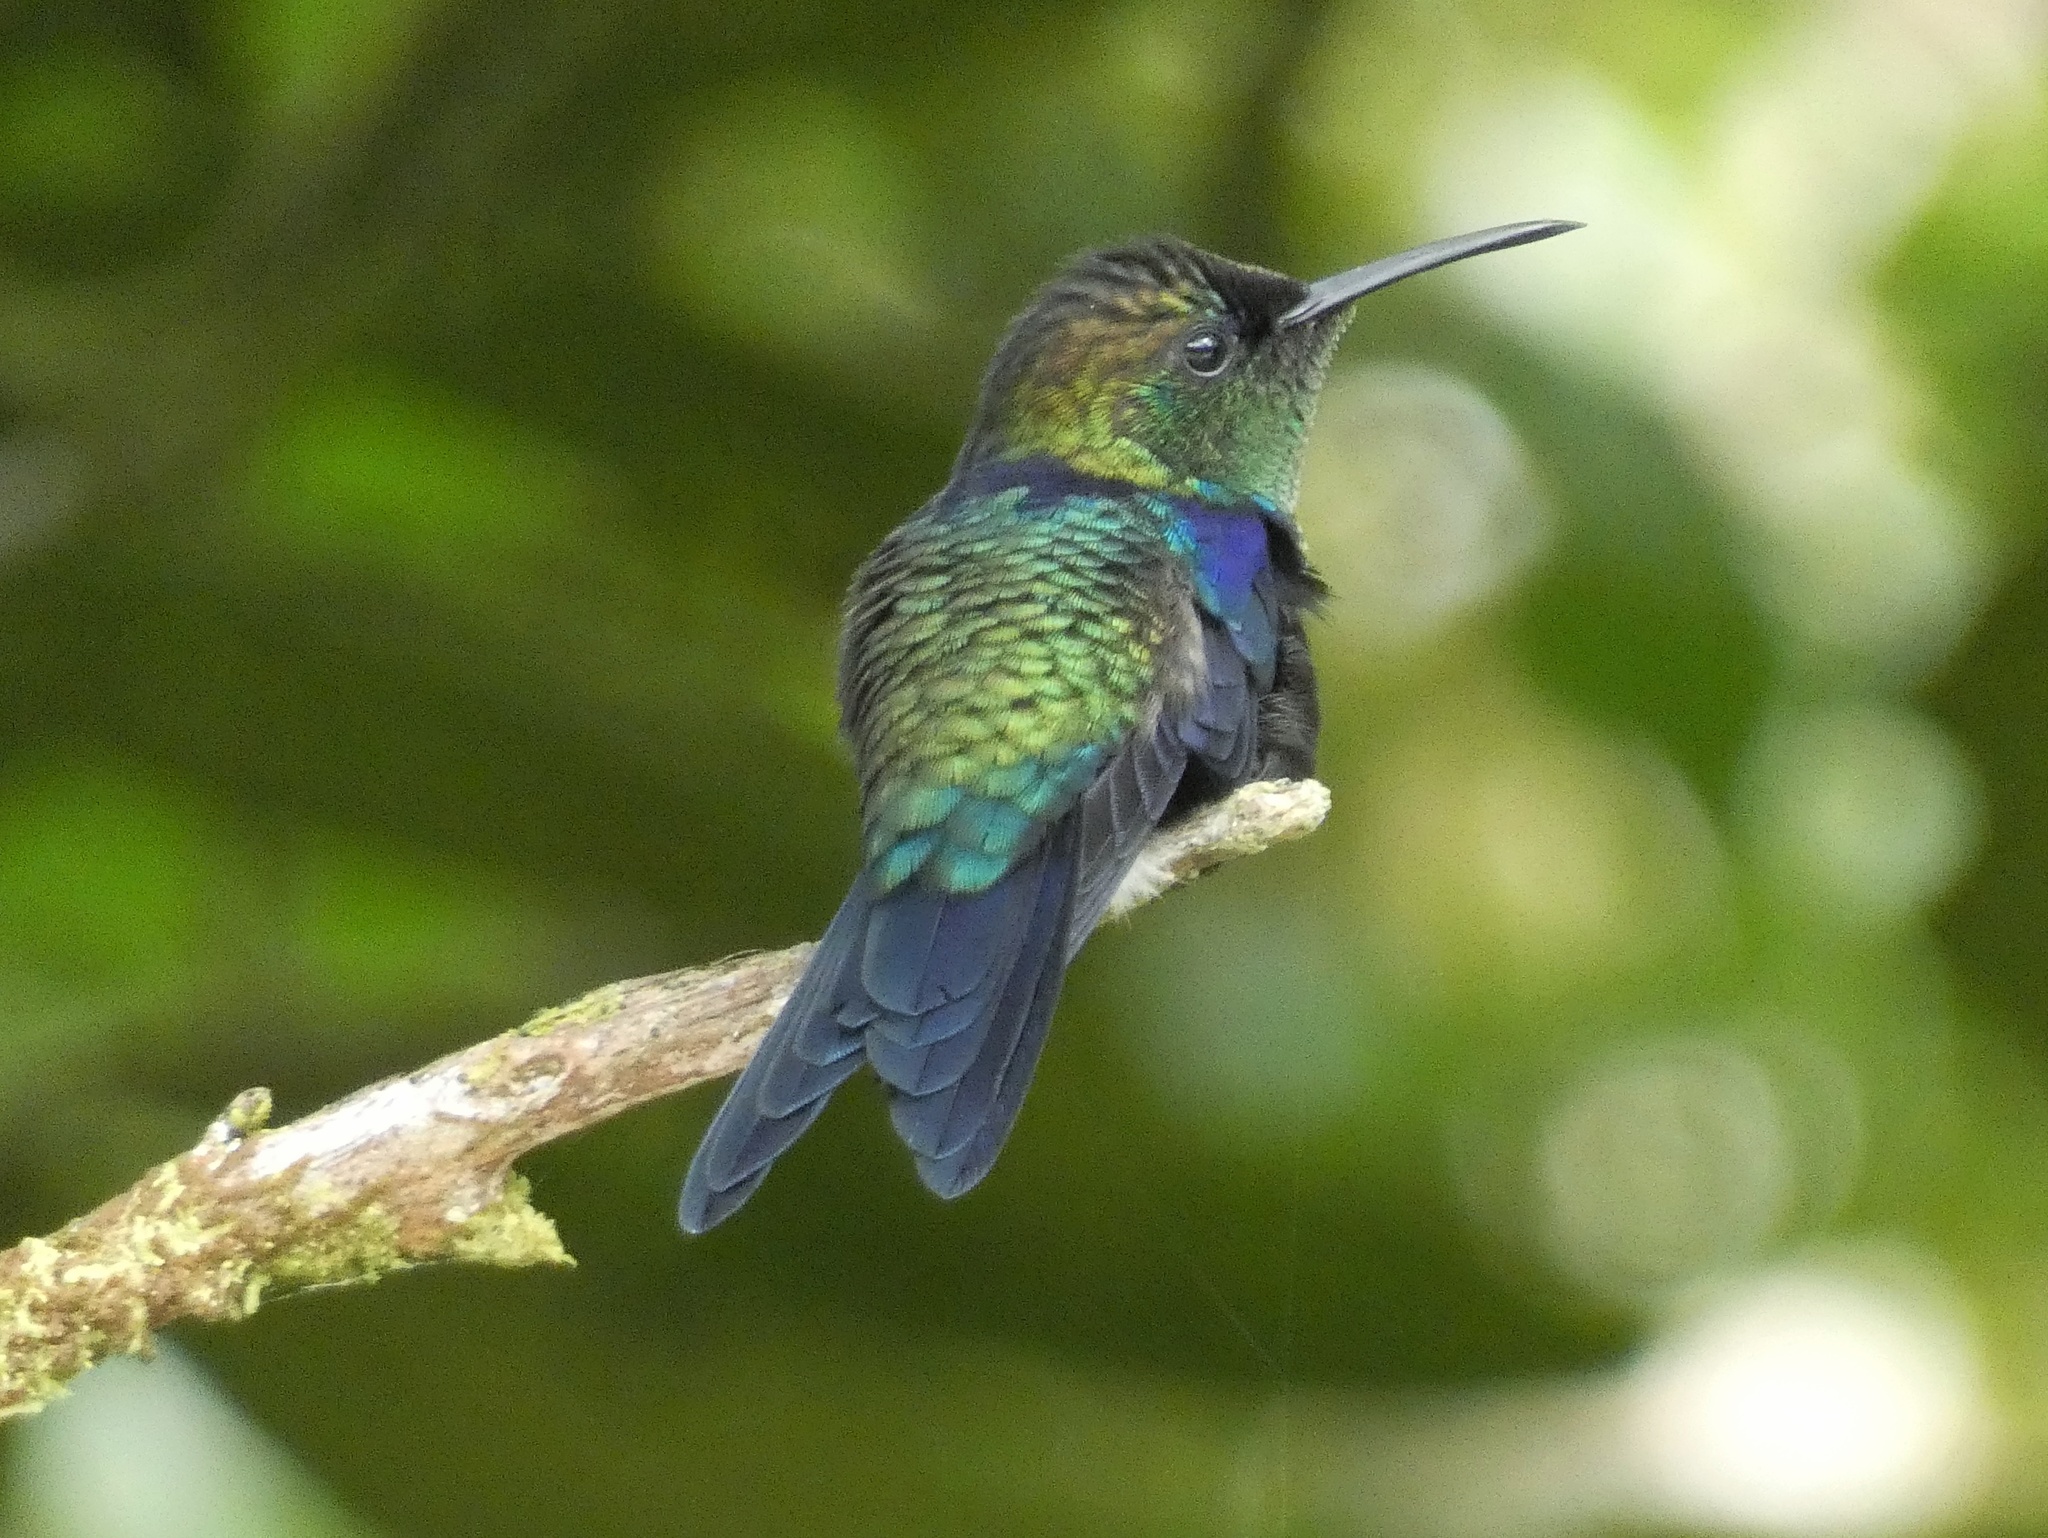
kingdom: Animalia
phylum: Chordata
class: Aves
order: Apodiformes
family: Trochilidae
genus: Thalurania
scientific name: Thalurania colombica
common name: Crowned woodnymph
